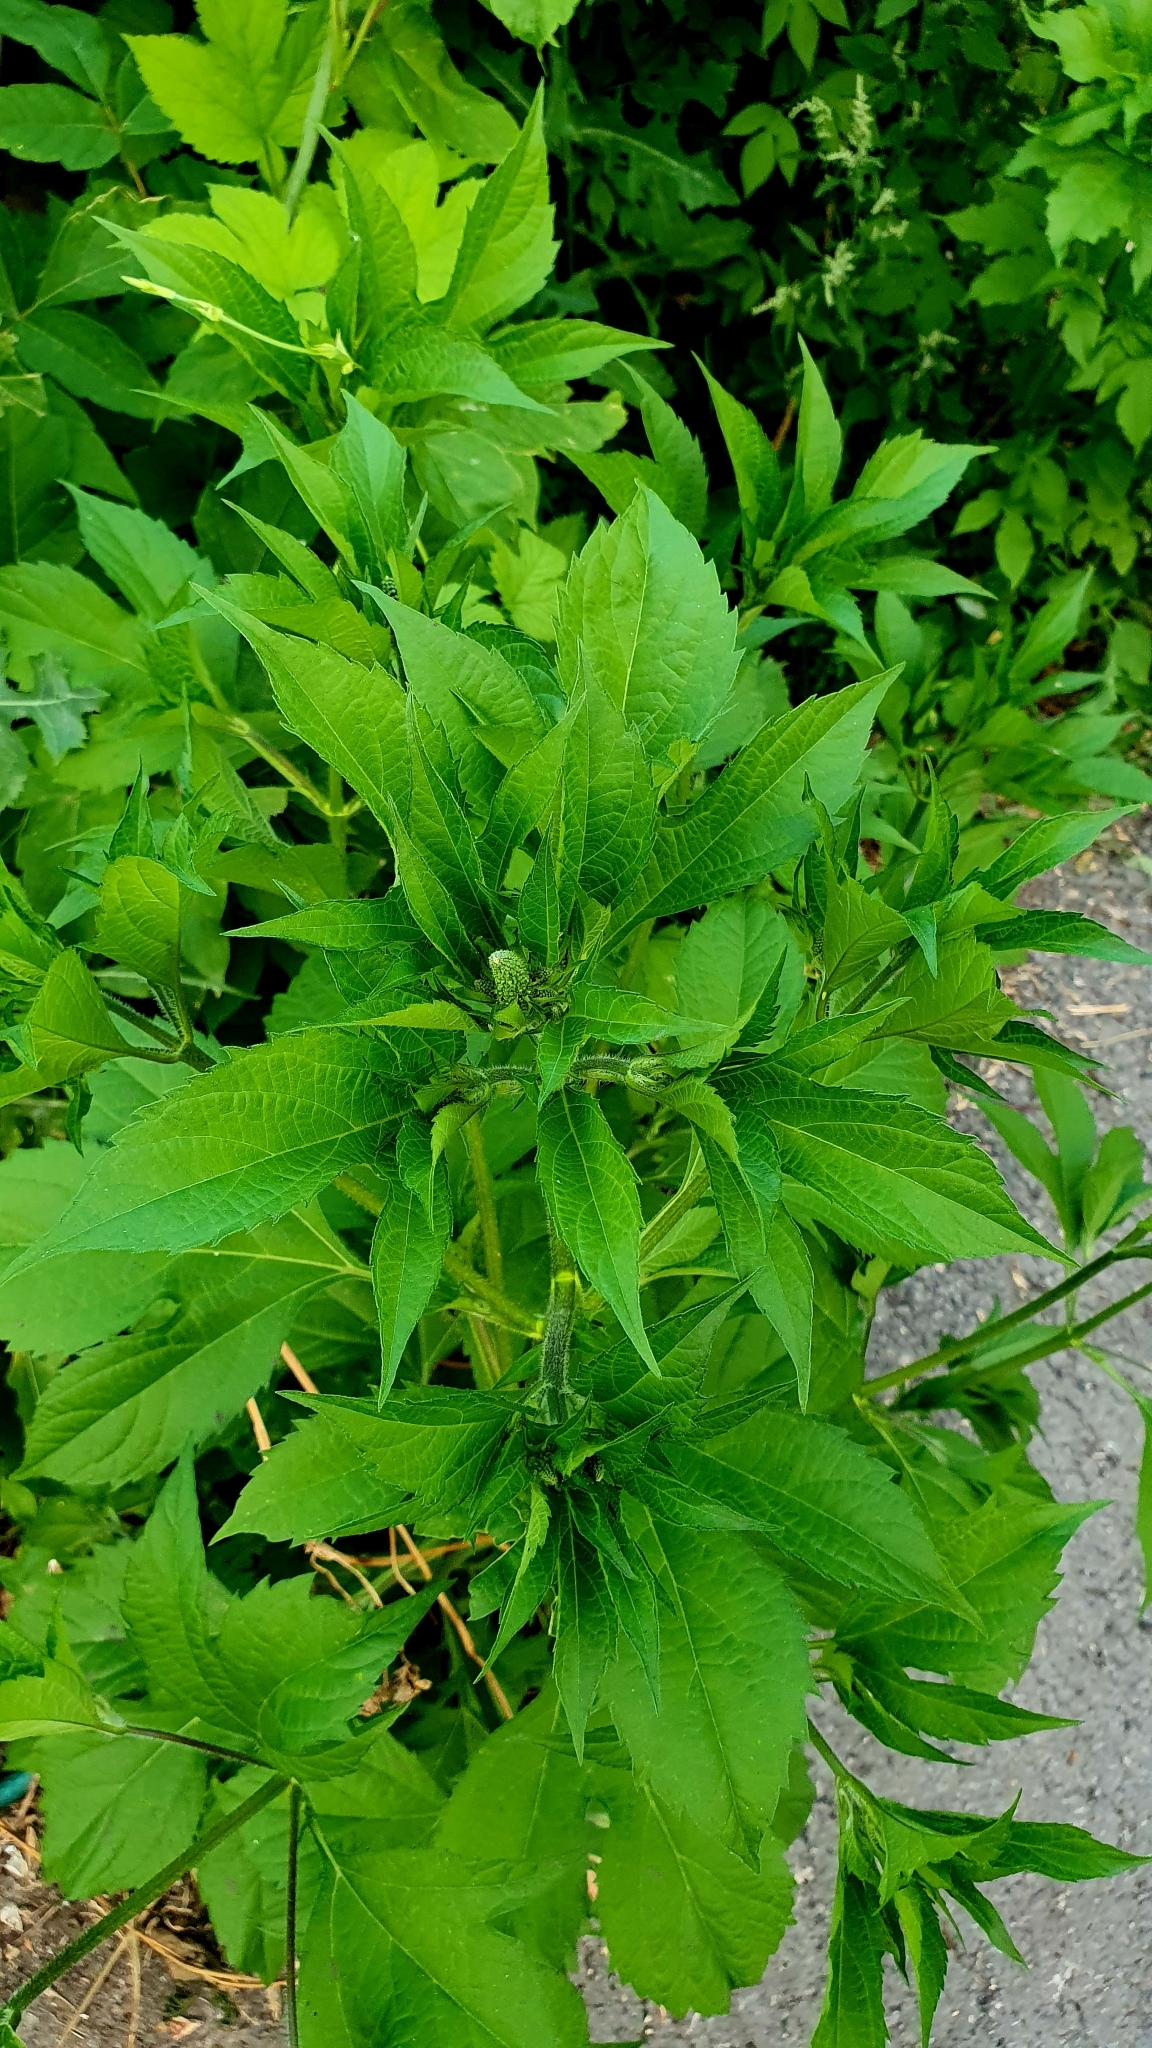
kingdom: Plantae
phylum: Tracheophyta
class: Magnoliopsida
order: Asterales
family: Asteraceae
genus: Ambrosia
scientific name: Ambrosia trifida
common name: Giant ragweed
